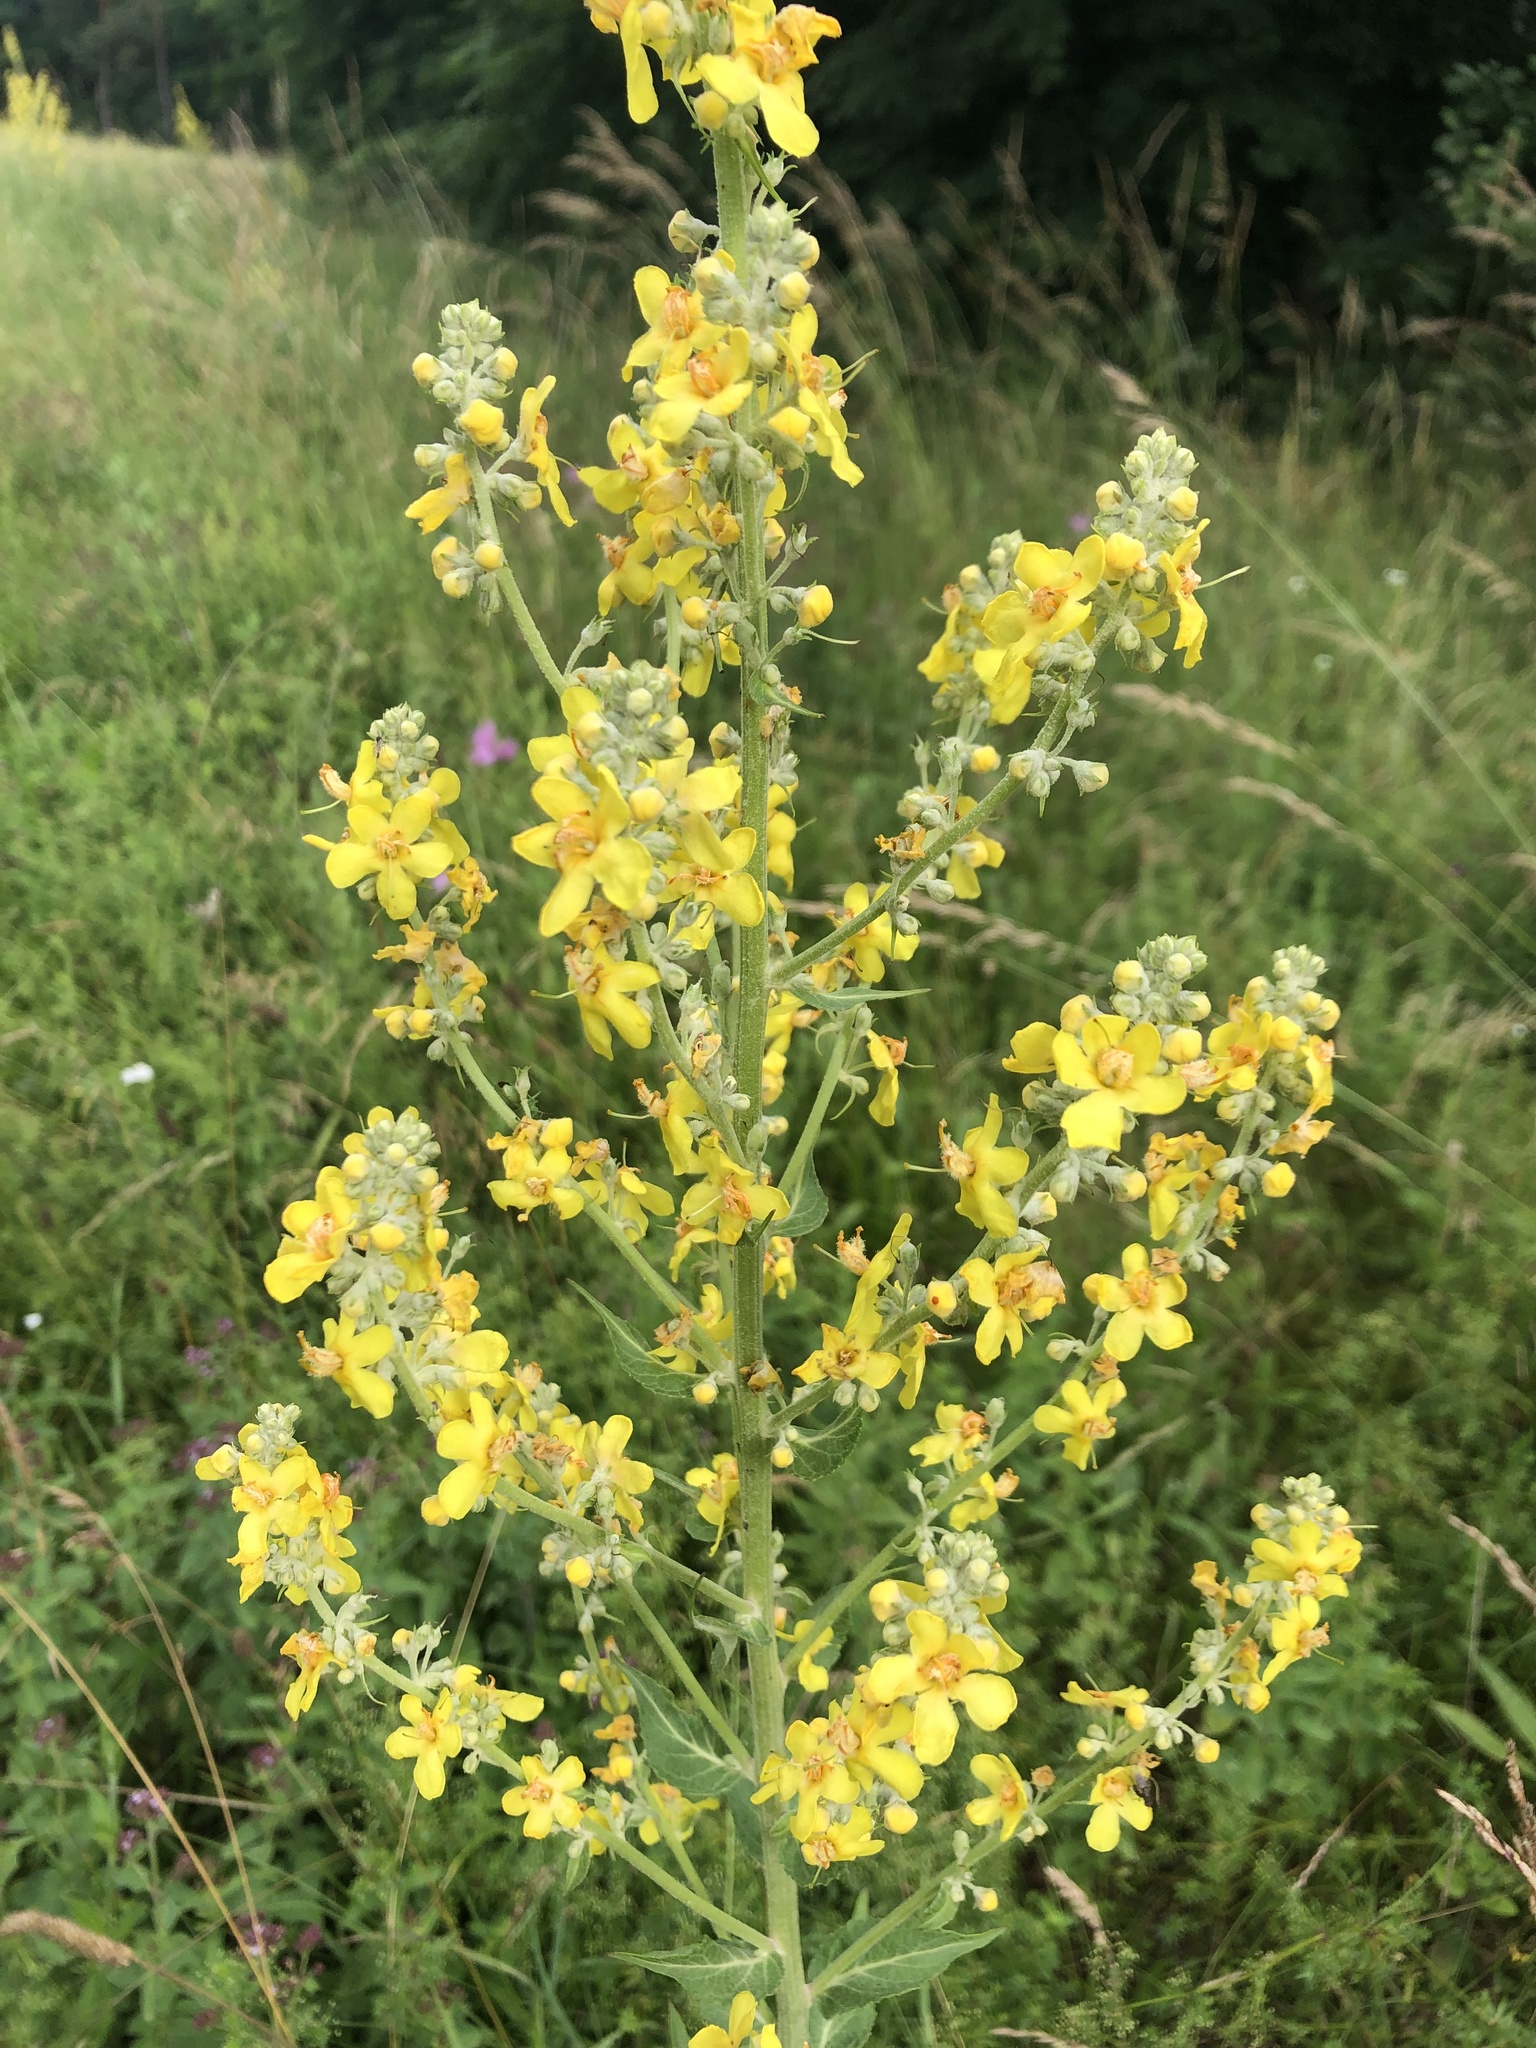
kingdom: Plantae
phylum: Tracheophyta
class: Magnoliopsida
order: Lamiales
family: Scrophulariaceae
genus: Verbascum
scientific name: Verbascum lychnitis
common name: White mullein
